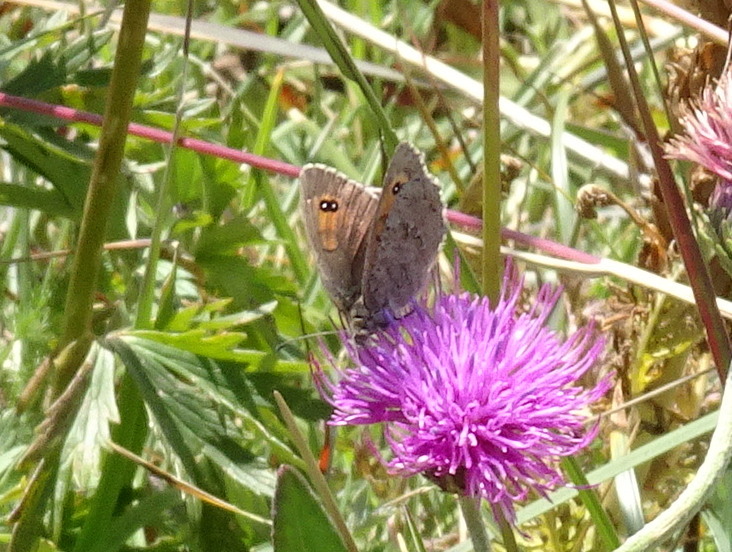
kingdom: Animalia
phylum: Arthropoda
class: Insecta
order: Lepidoptera
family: Nymphalidae
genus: Erebia
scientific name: Erebia cassioides
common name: Common brassy ringlet
